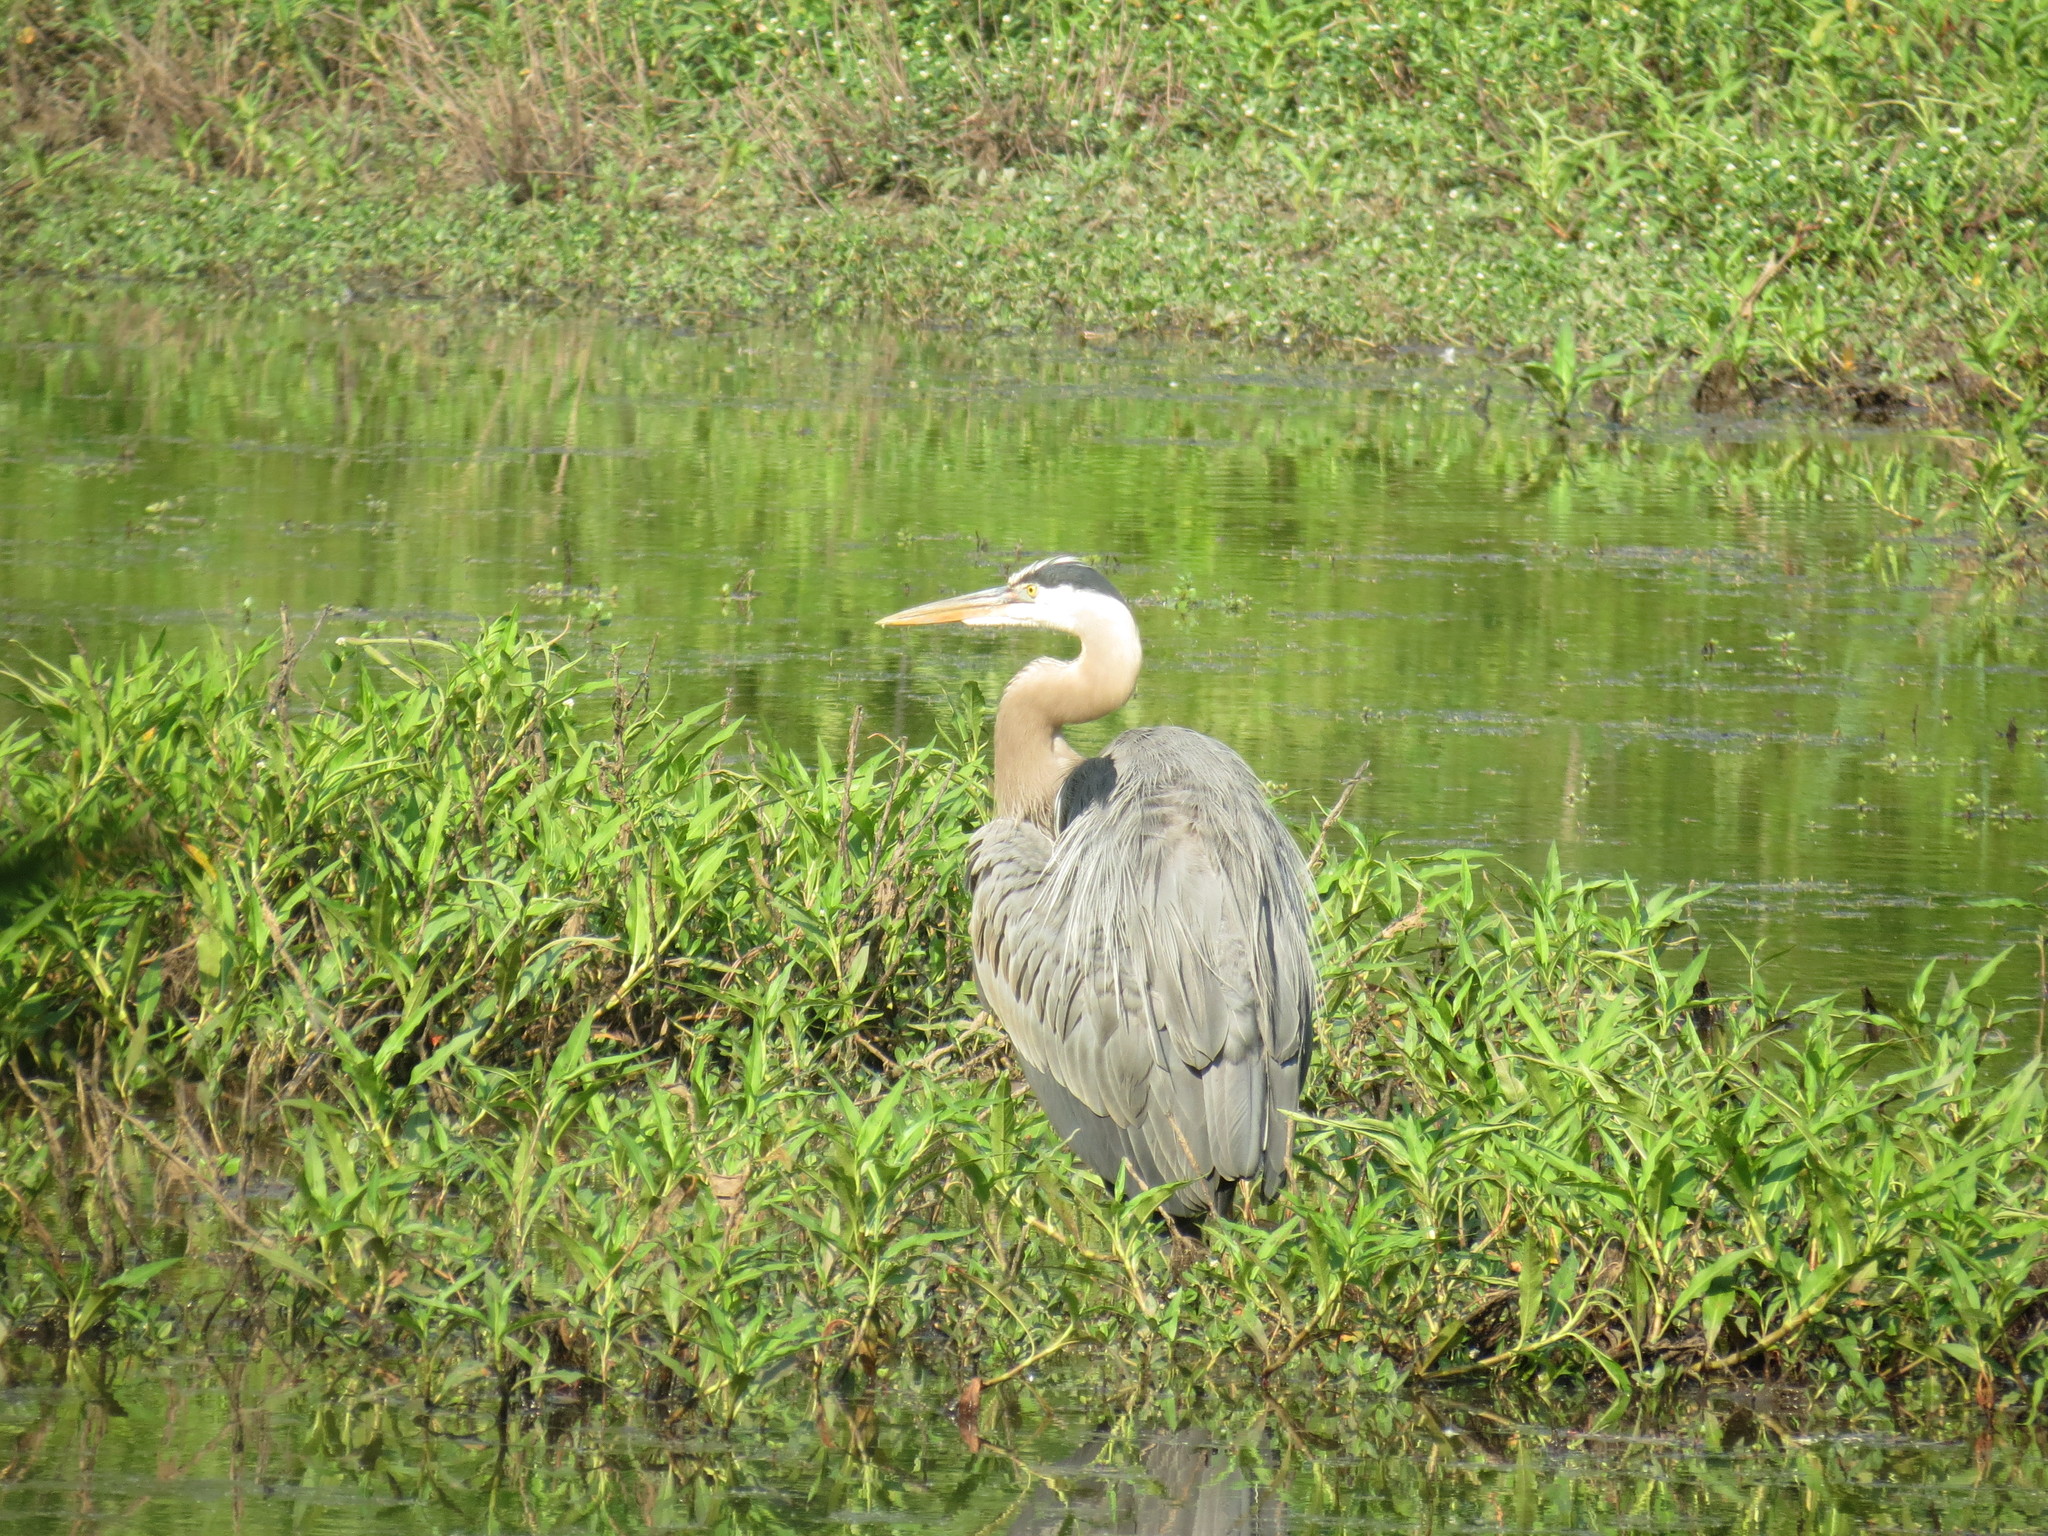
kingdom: Animalia
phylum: Chordata
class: Aves
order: Pelecaniformes
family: Ardeidae
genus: Ardea
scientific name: Ardea herodias
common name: Great blue heron
